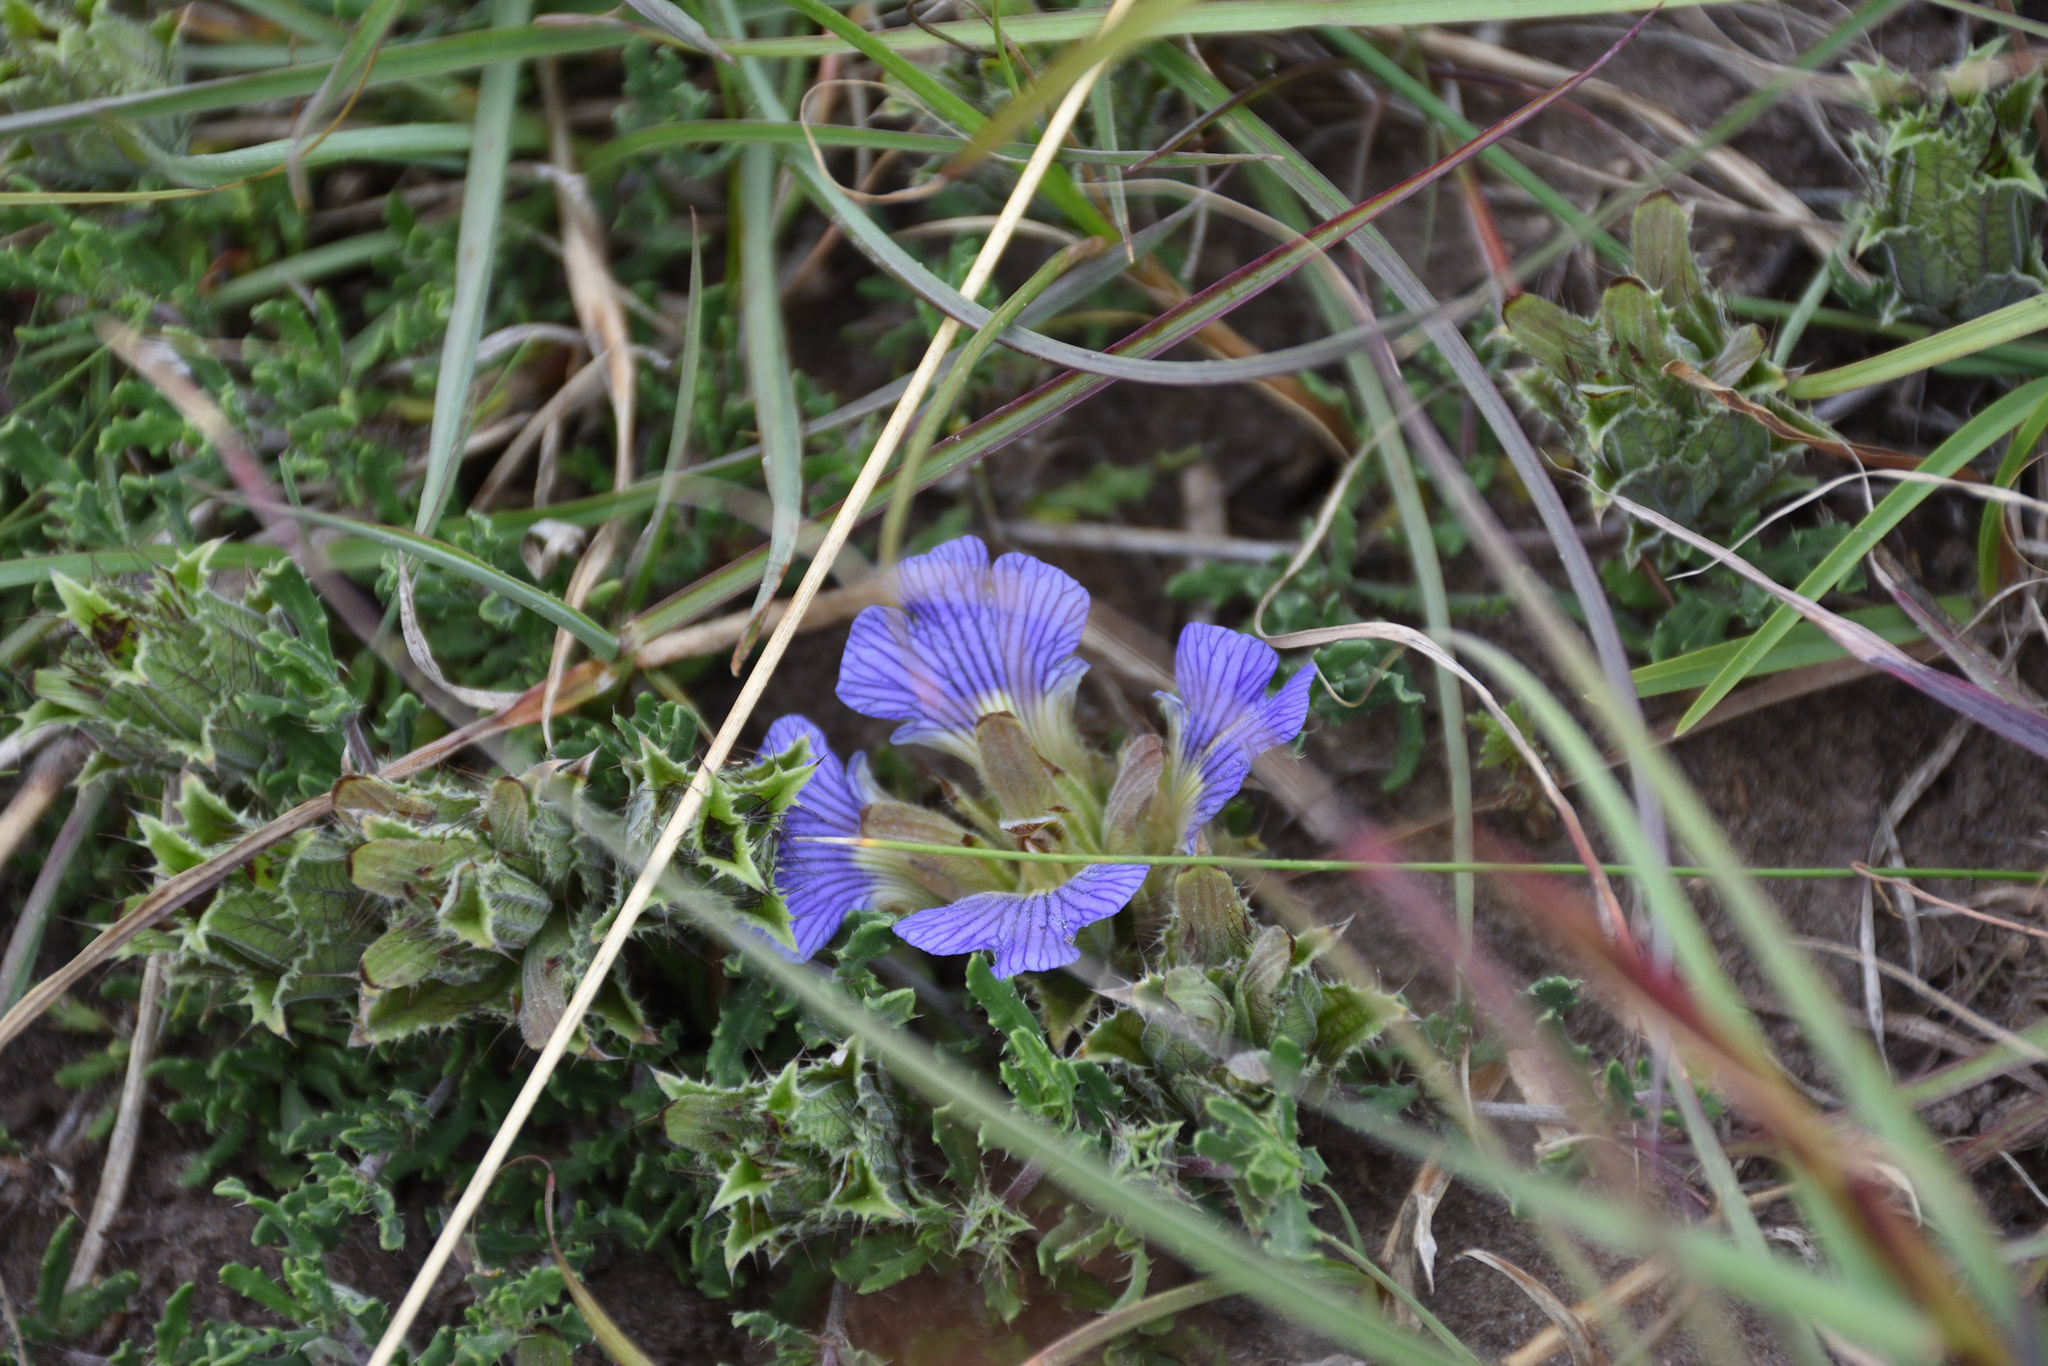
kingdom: Plantae
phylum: Tracheophyta
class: Magnoliopsida
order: Lamiales
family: Acanthaceae
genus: Blepharis
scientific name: Blepharis procumbens
